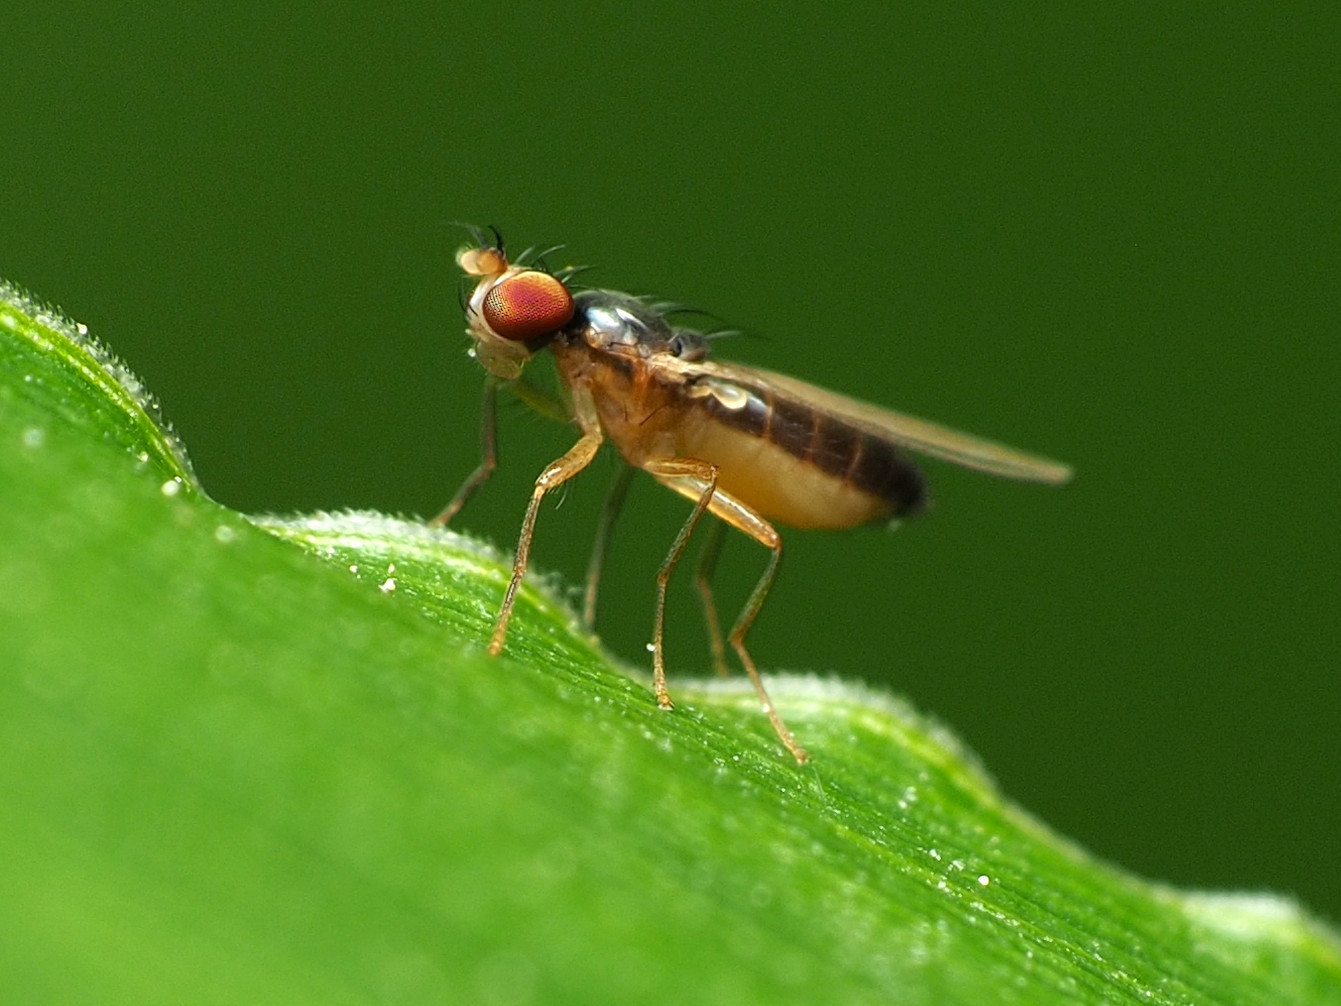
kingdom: Animalia
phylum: Arthropoda
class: Insecta
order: Diptera
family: Anthomyzidae
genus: Mumetopia
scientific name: Mumetopia occipitalis
